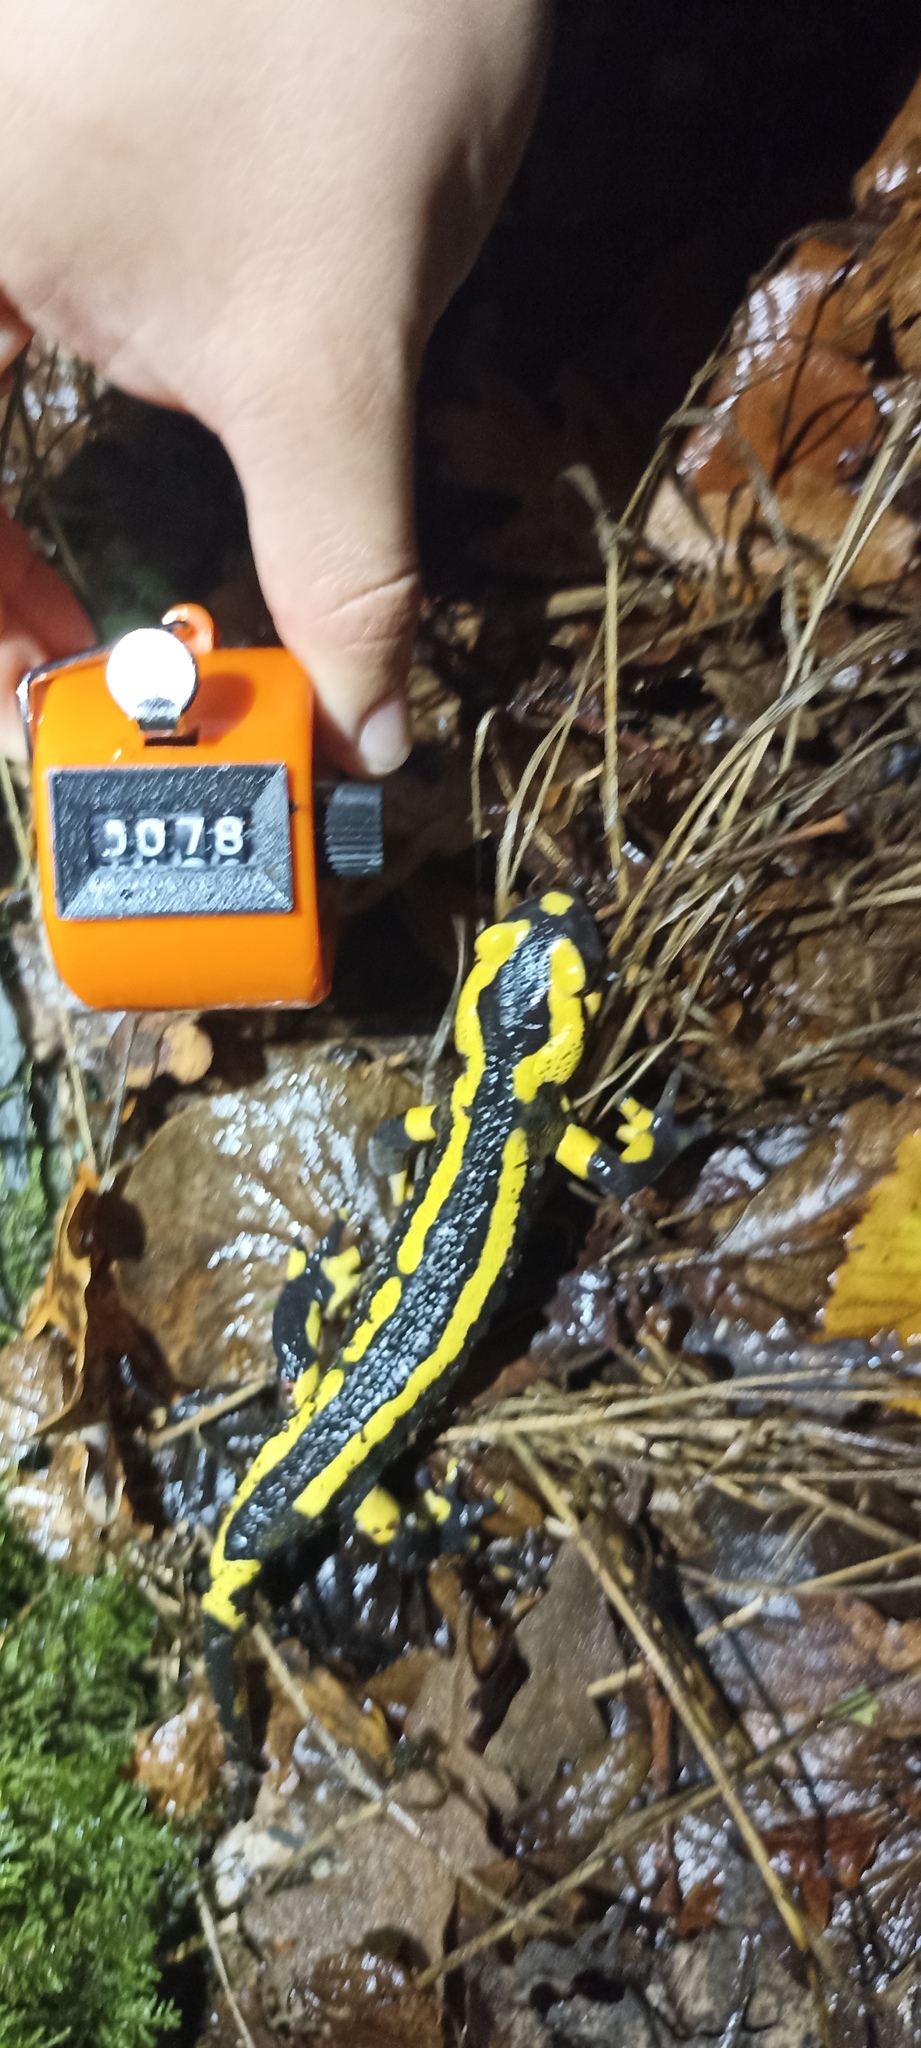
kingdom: Animalia
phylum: Chordata
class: Amphibia
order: Caudata
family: Salamandridae
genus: Salamandra
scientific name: Salamandra salamandra
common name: Fire salamander
